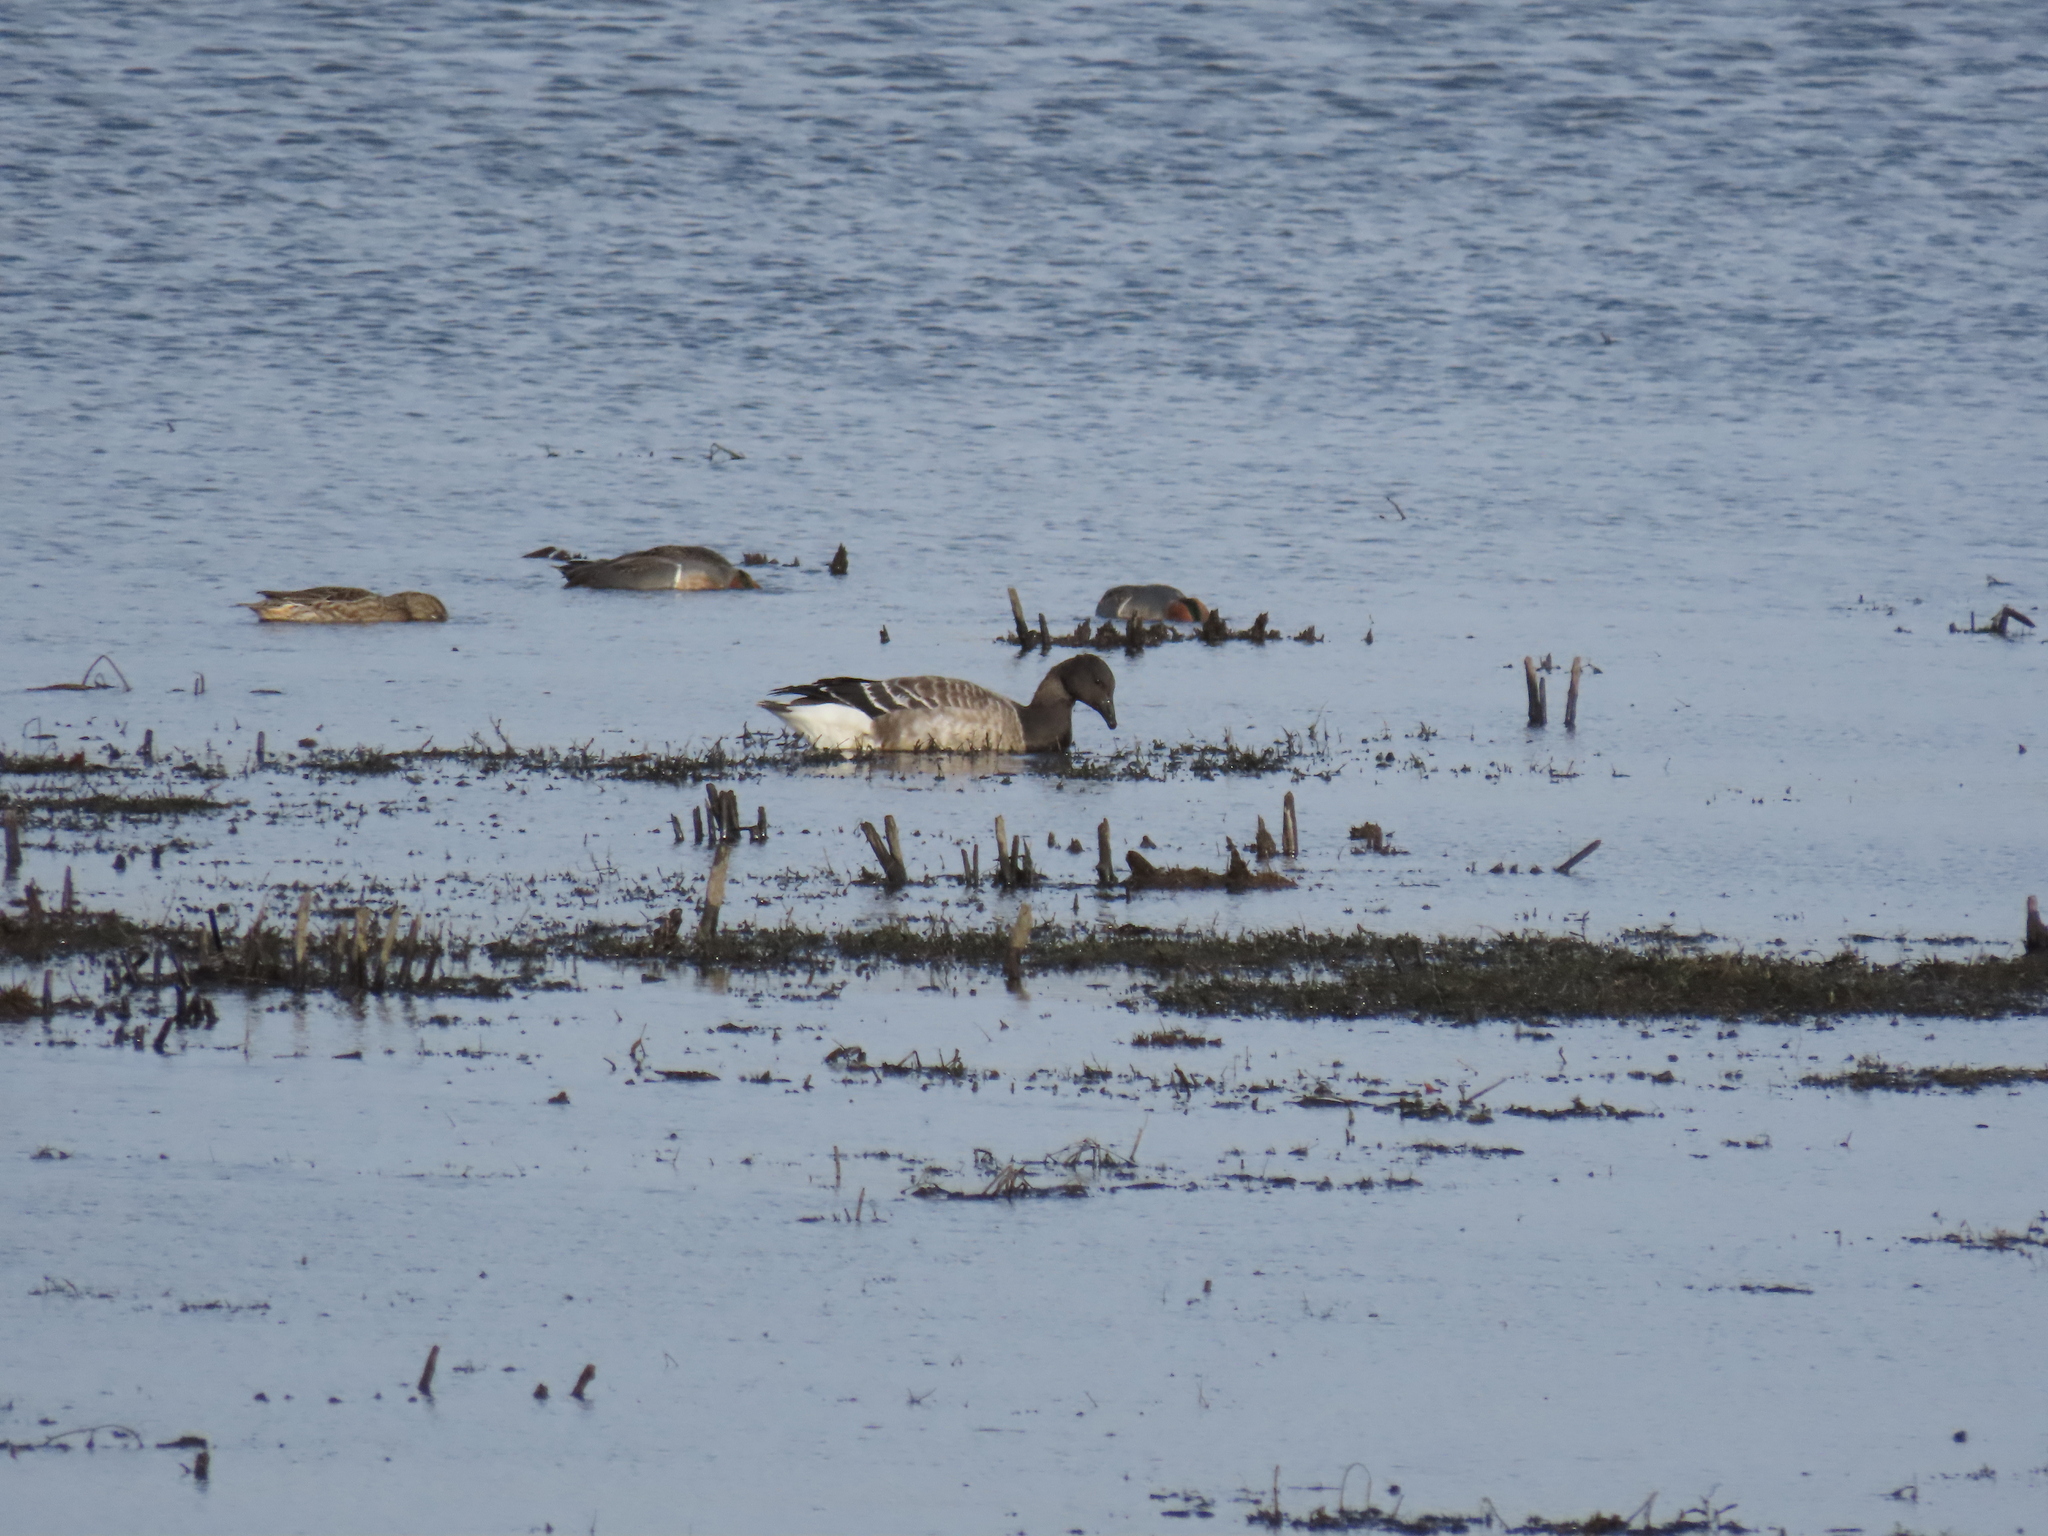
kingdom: Animalia
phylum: Chordata
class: Aves
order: Anseriformes
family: Anatidae
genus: Branta
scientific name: Branta bernicla
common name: Brant goose
